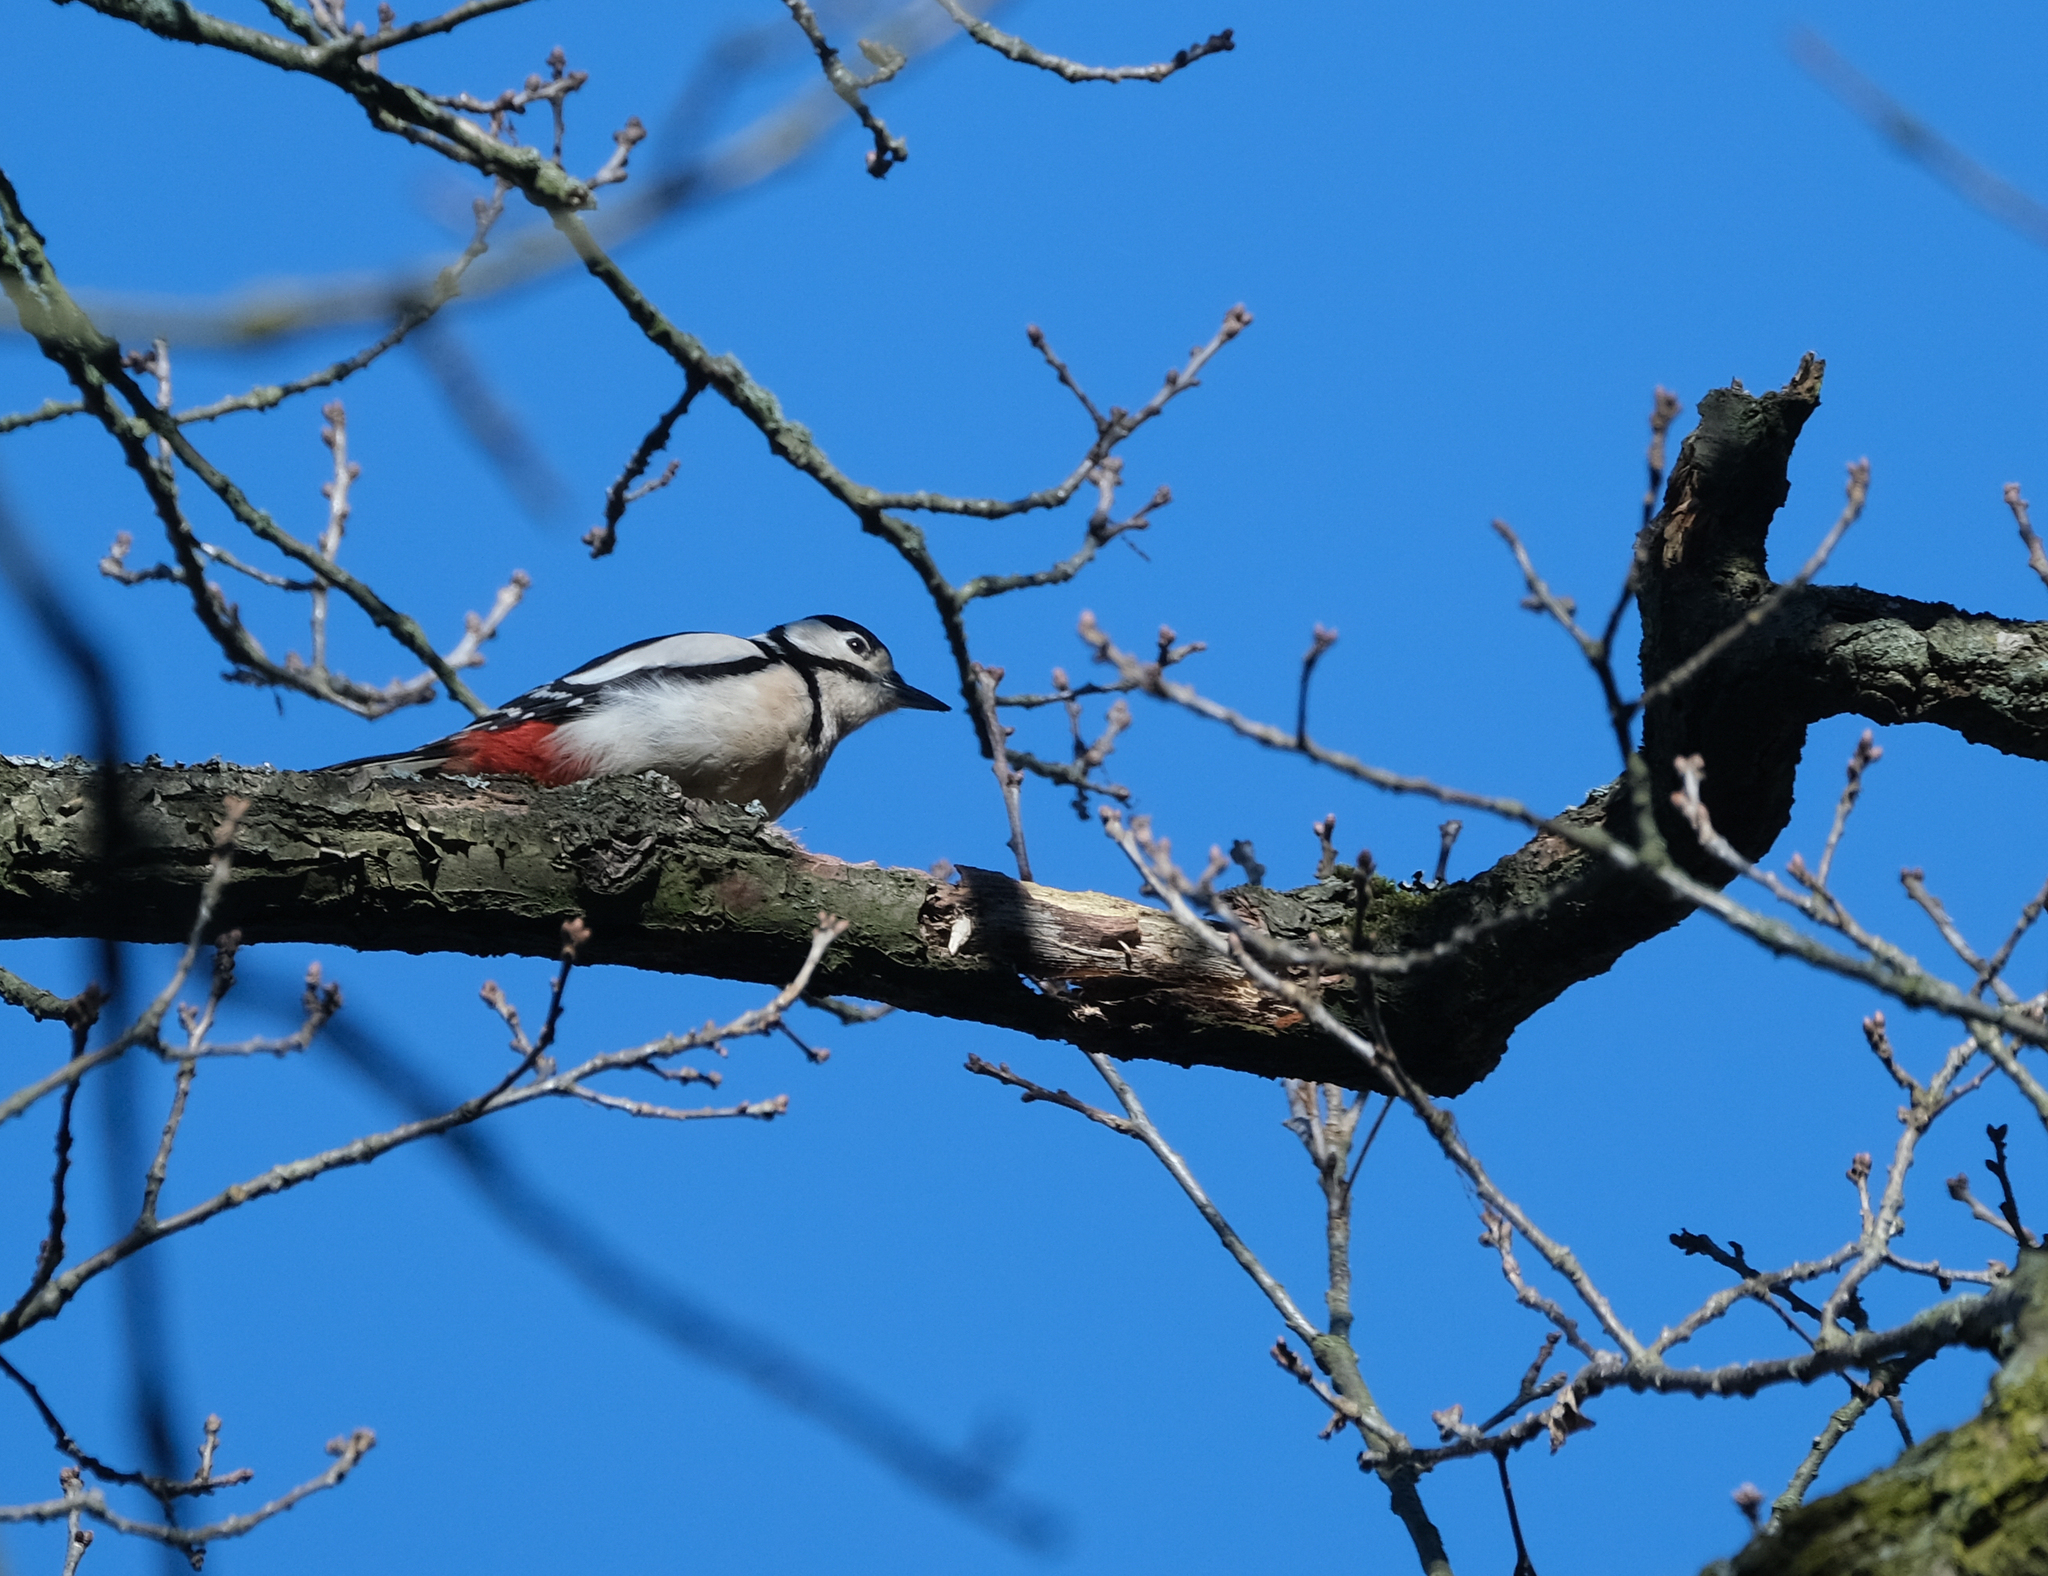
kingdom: Animalia
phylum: Chordata
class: Aves
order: Piciformes
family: Picidae
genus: Dendrocopos
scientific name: Dendrocopos major
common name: Great spotted woodpecker
